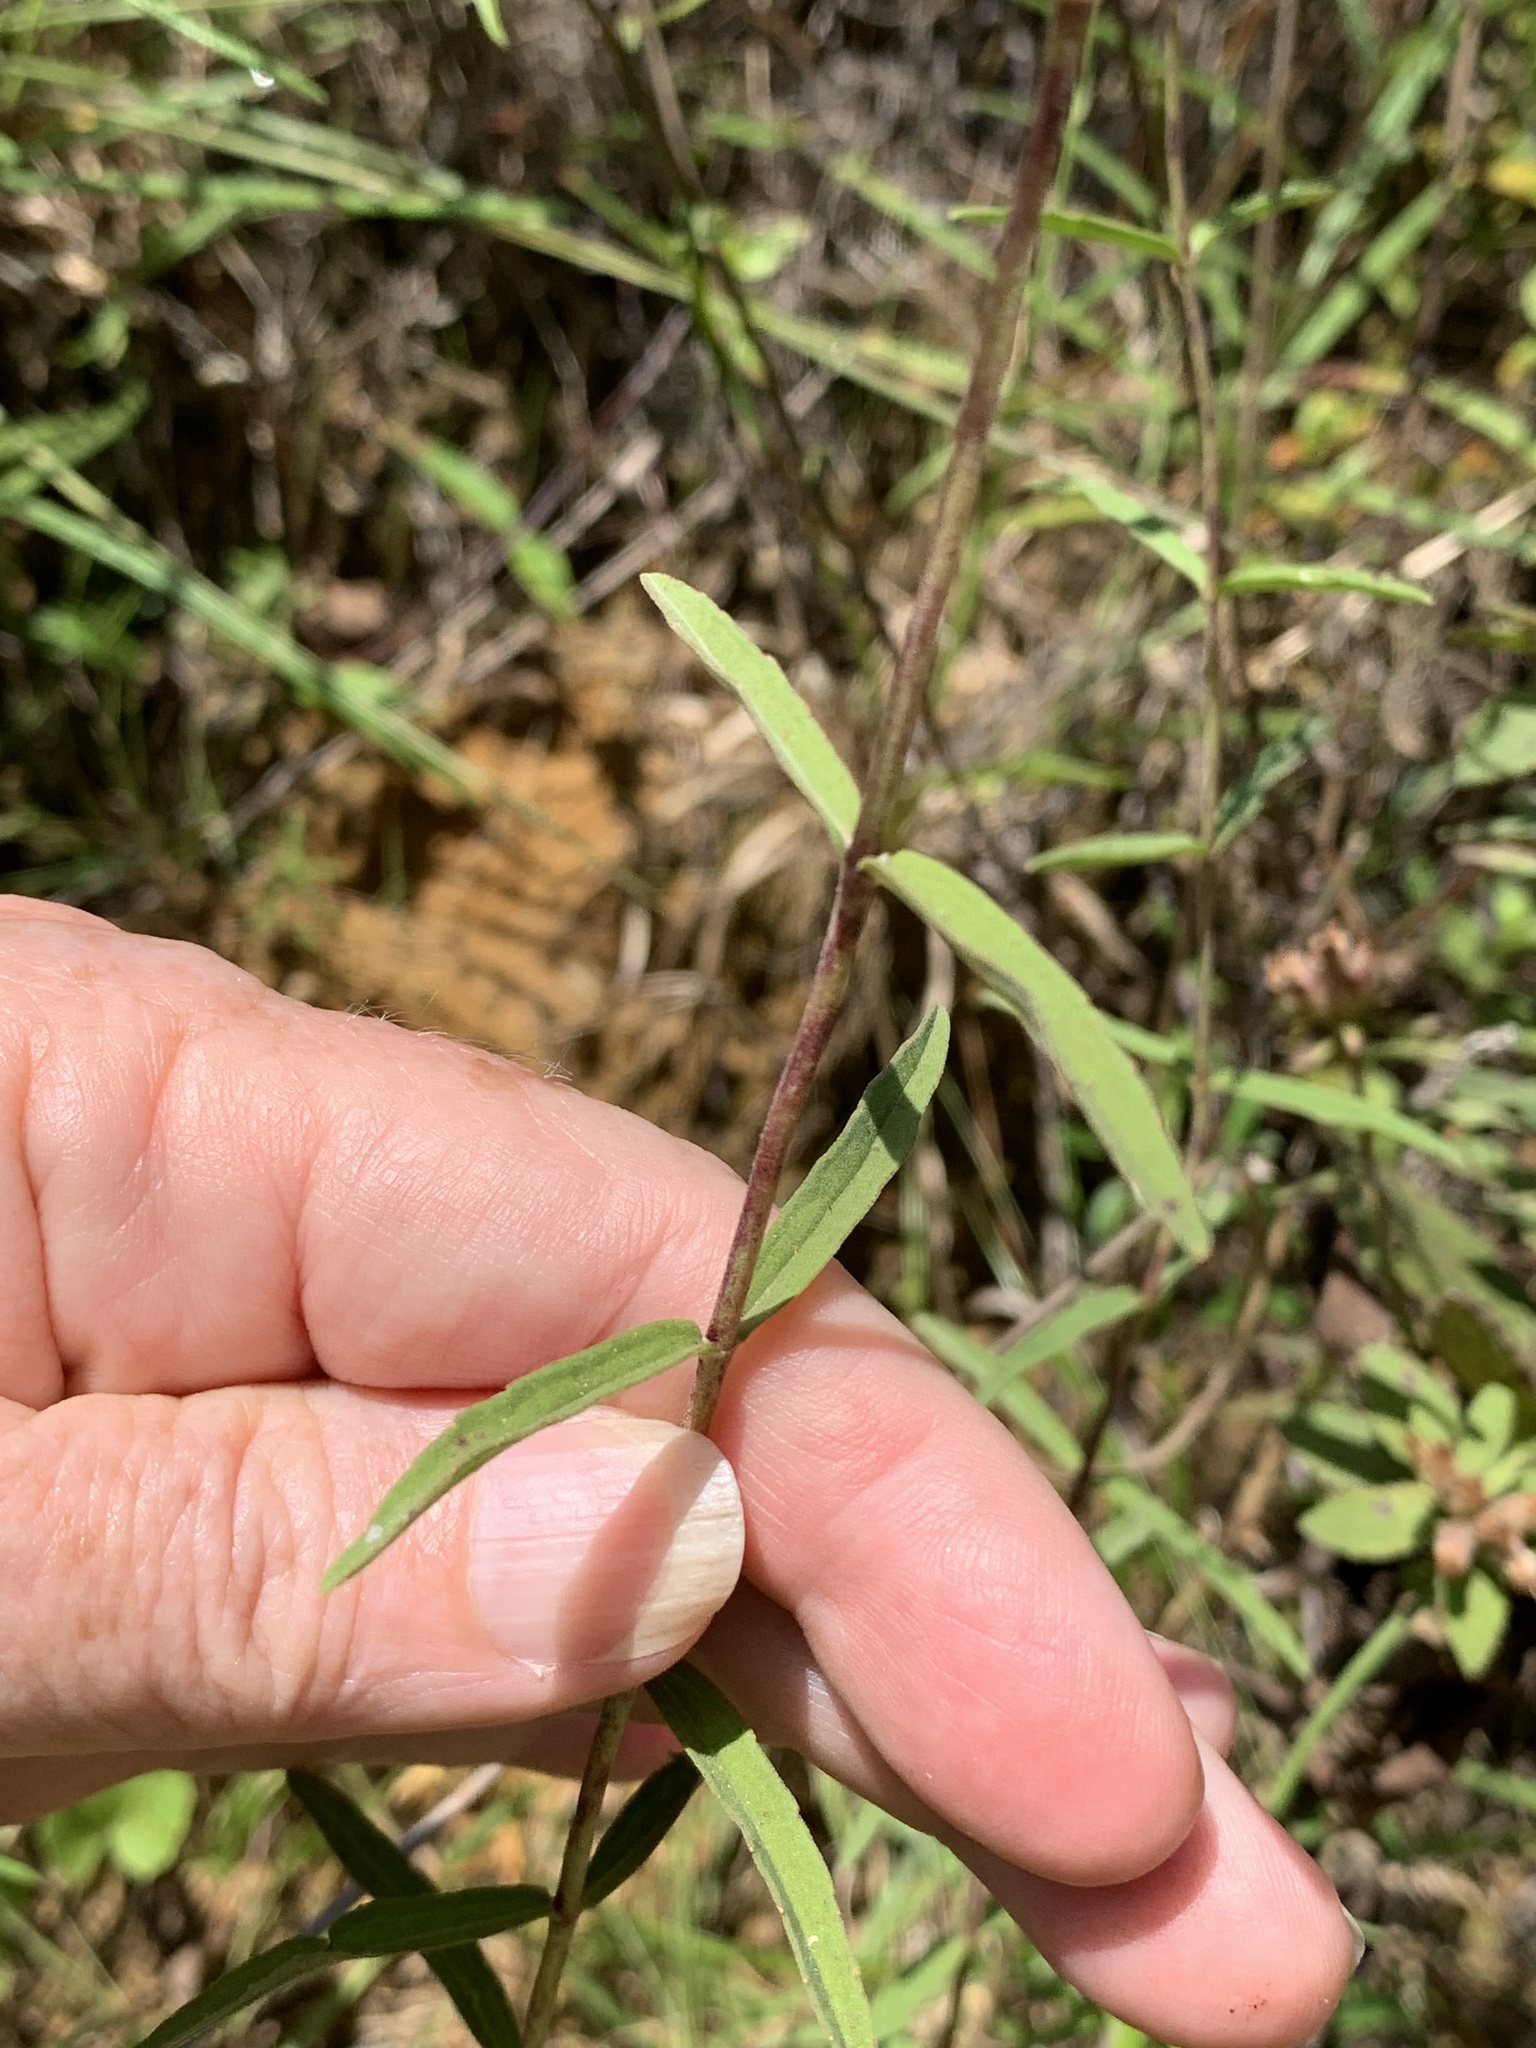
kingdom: Plantae
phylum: Tracheophyta
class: Magnoliopsida
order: Asterales
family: Asteraceae
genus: Eupatorium
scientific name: Eupatorium leucolepis
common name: Justiceweed
